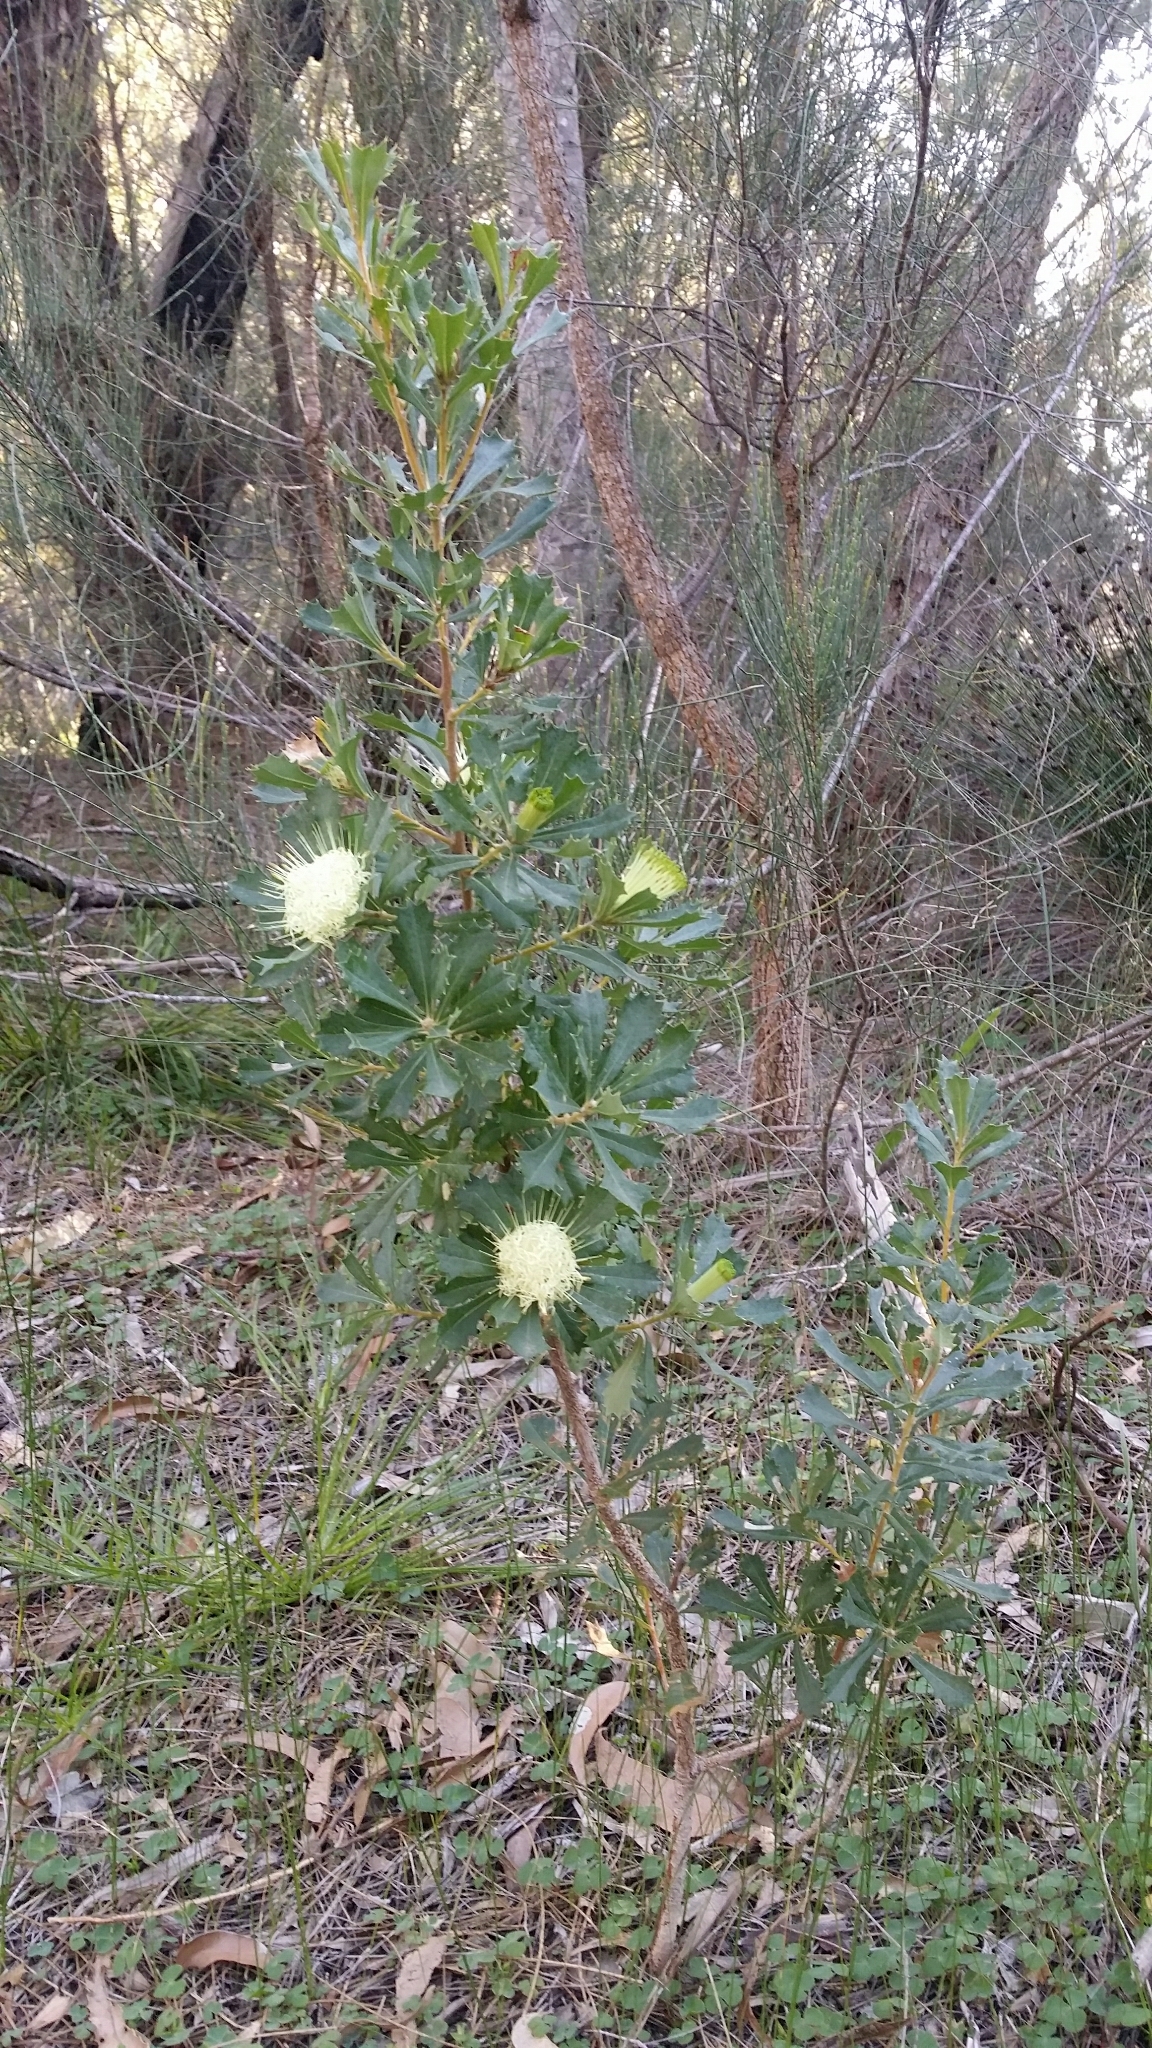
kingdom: Plantae
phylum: Tracheophyta
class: Magnoliopsida
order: Proteales
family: Proteaceae
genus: Banksia
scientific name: Banksia sessilis
